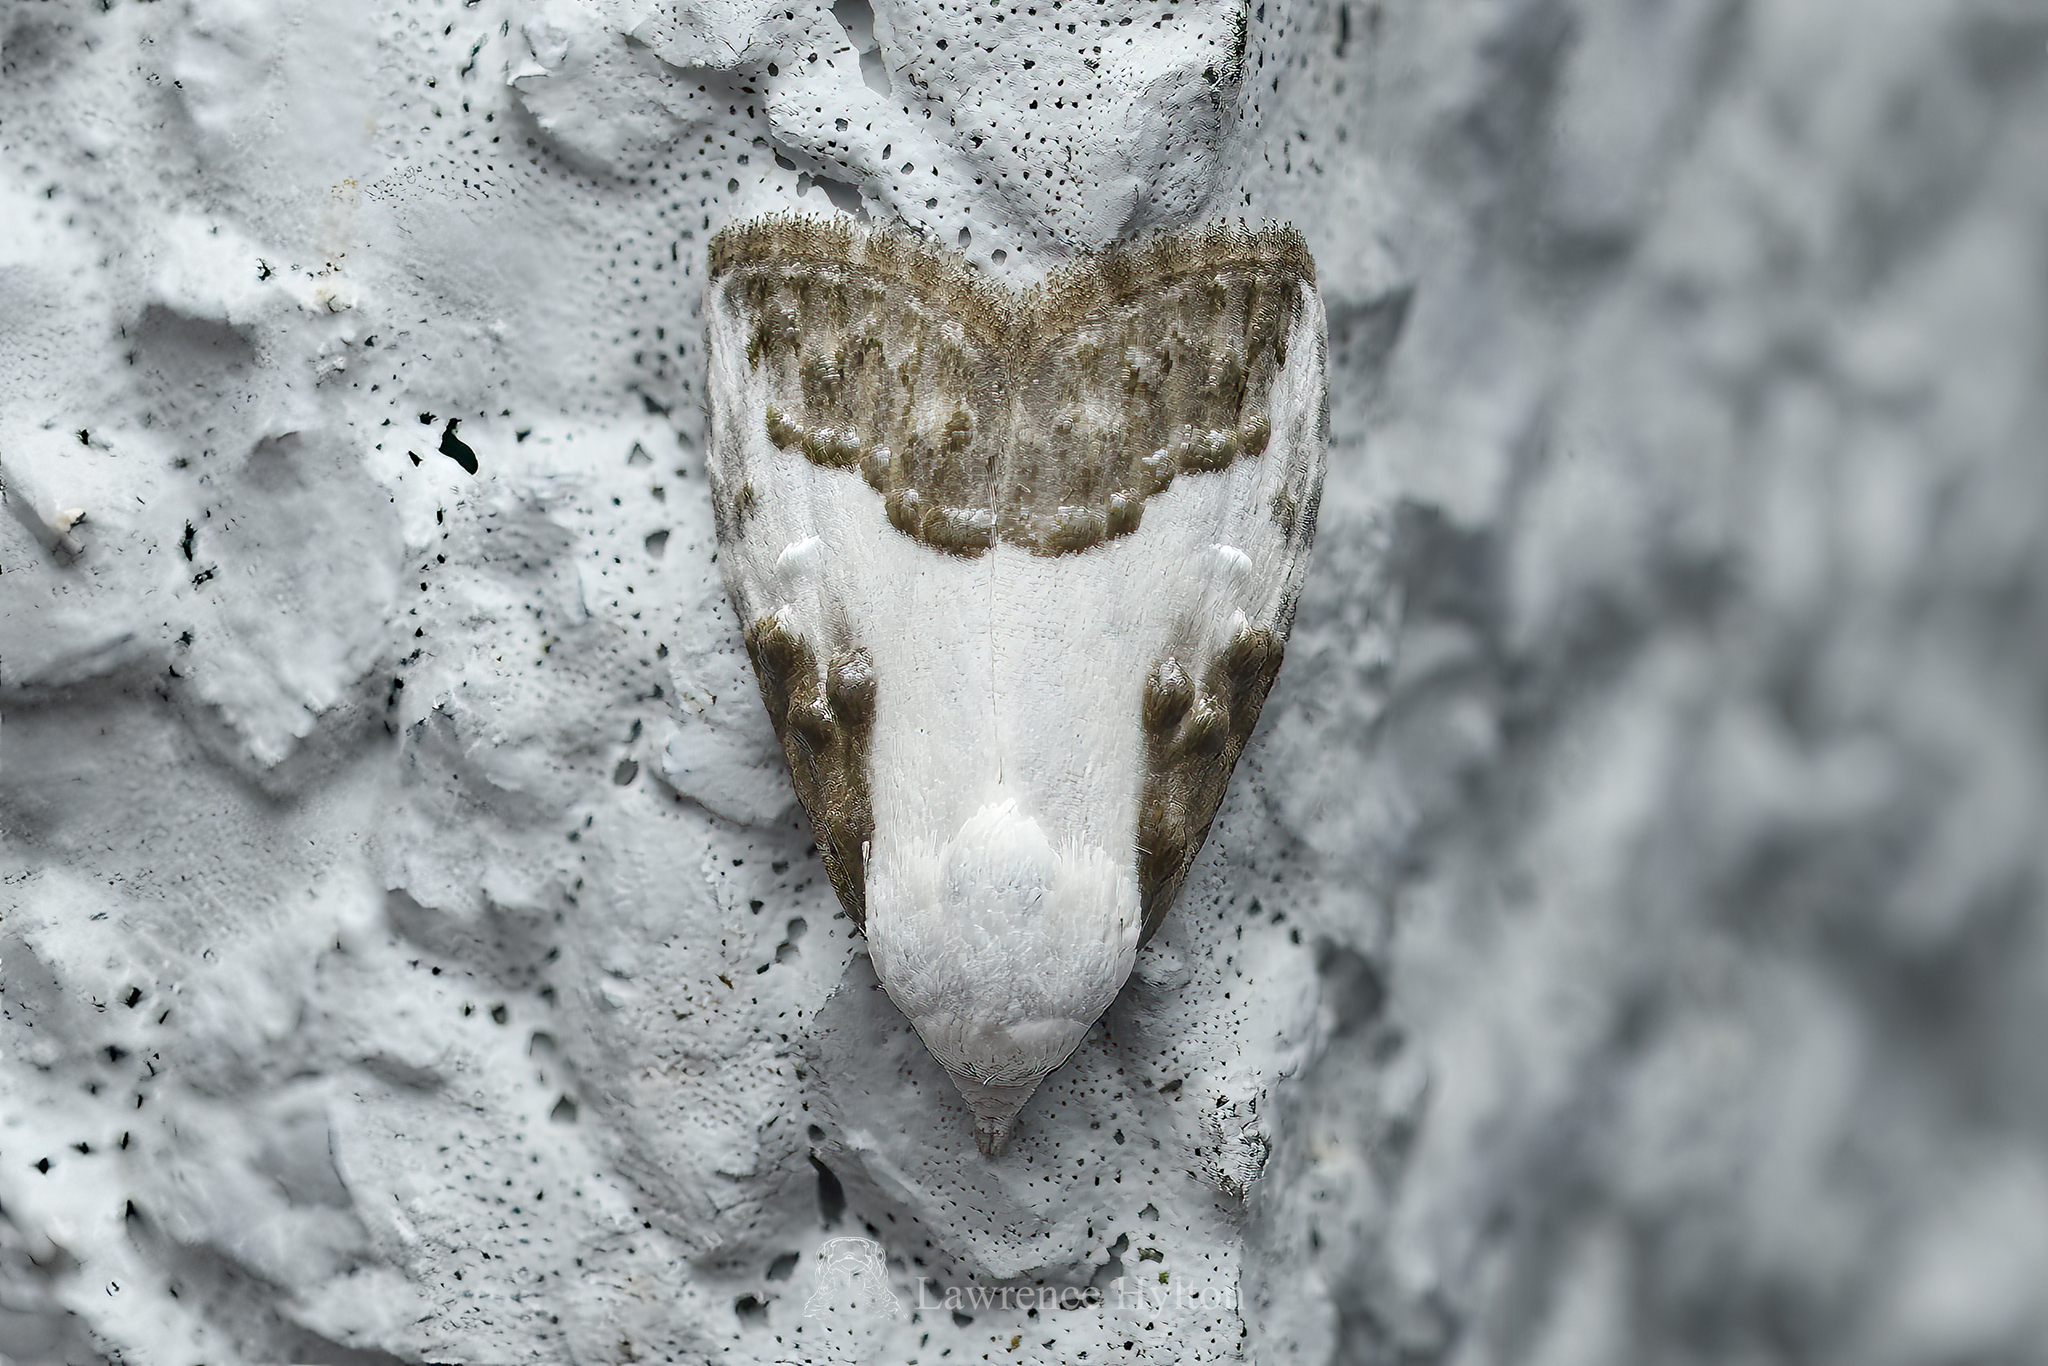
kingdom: Animalia
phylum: Arthropoda
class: Insecta
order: Lepidoptera
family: Nolidae
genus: Aeneanola
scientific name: Aeneanola acontioides
